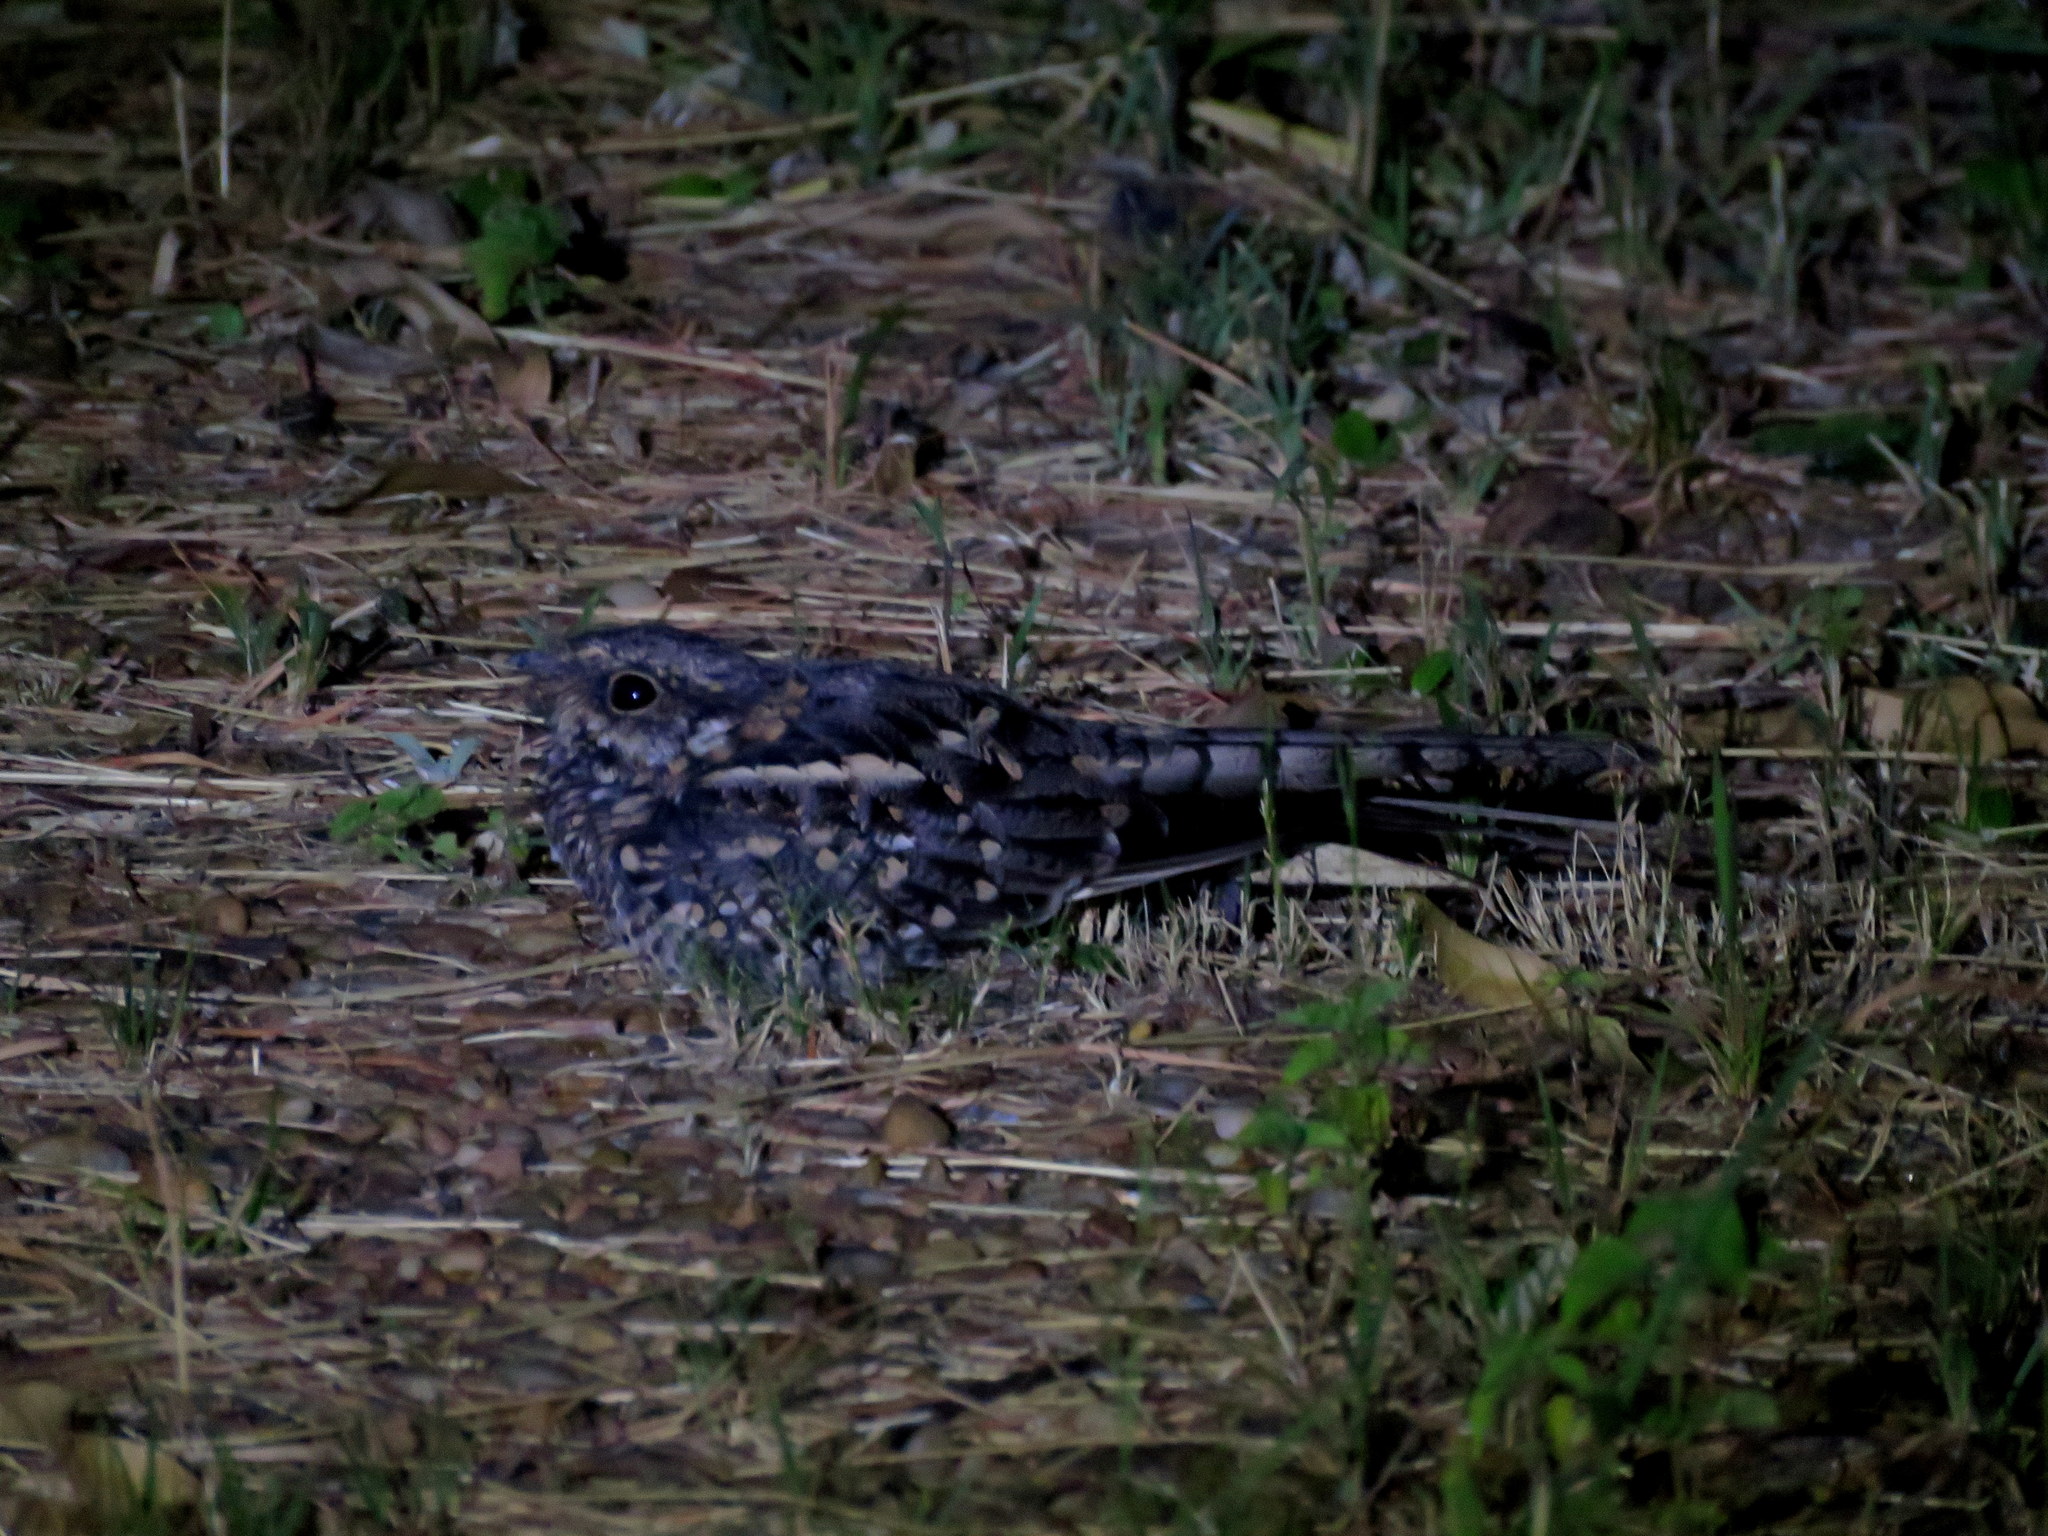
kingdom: Animalia
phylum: Chordata
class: Aves
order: Caprimulgiformes
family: Caprimulgidae
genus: Hydropsalis
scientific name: Hydropsalis torquata
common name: Scissor-tailed nightjar
